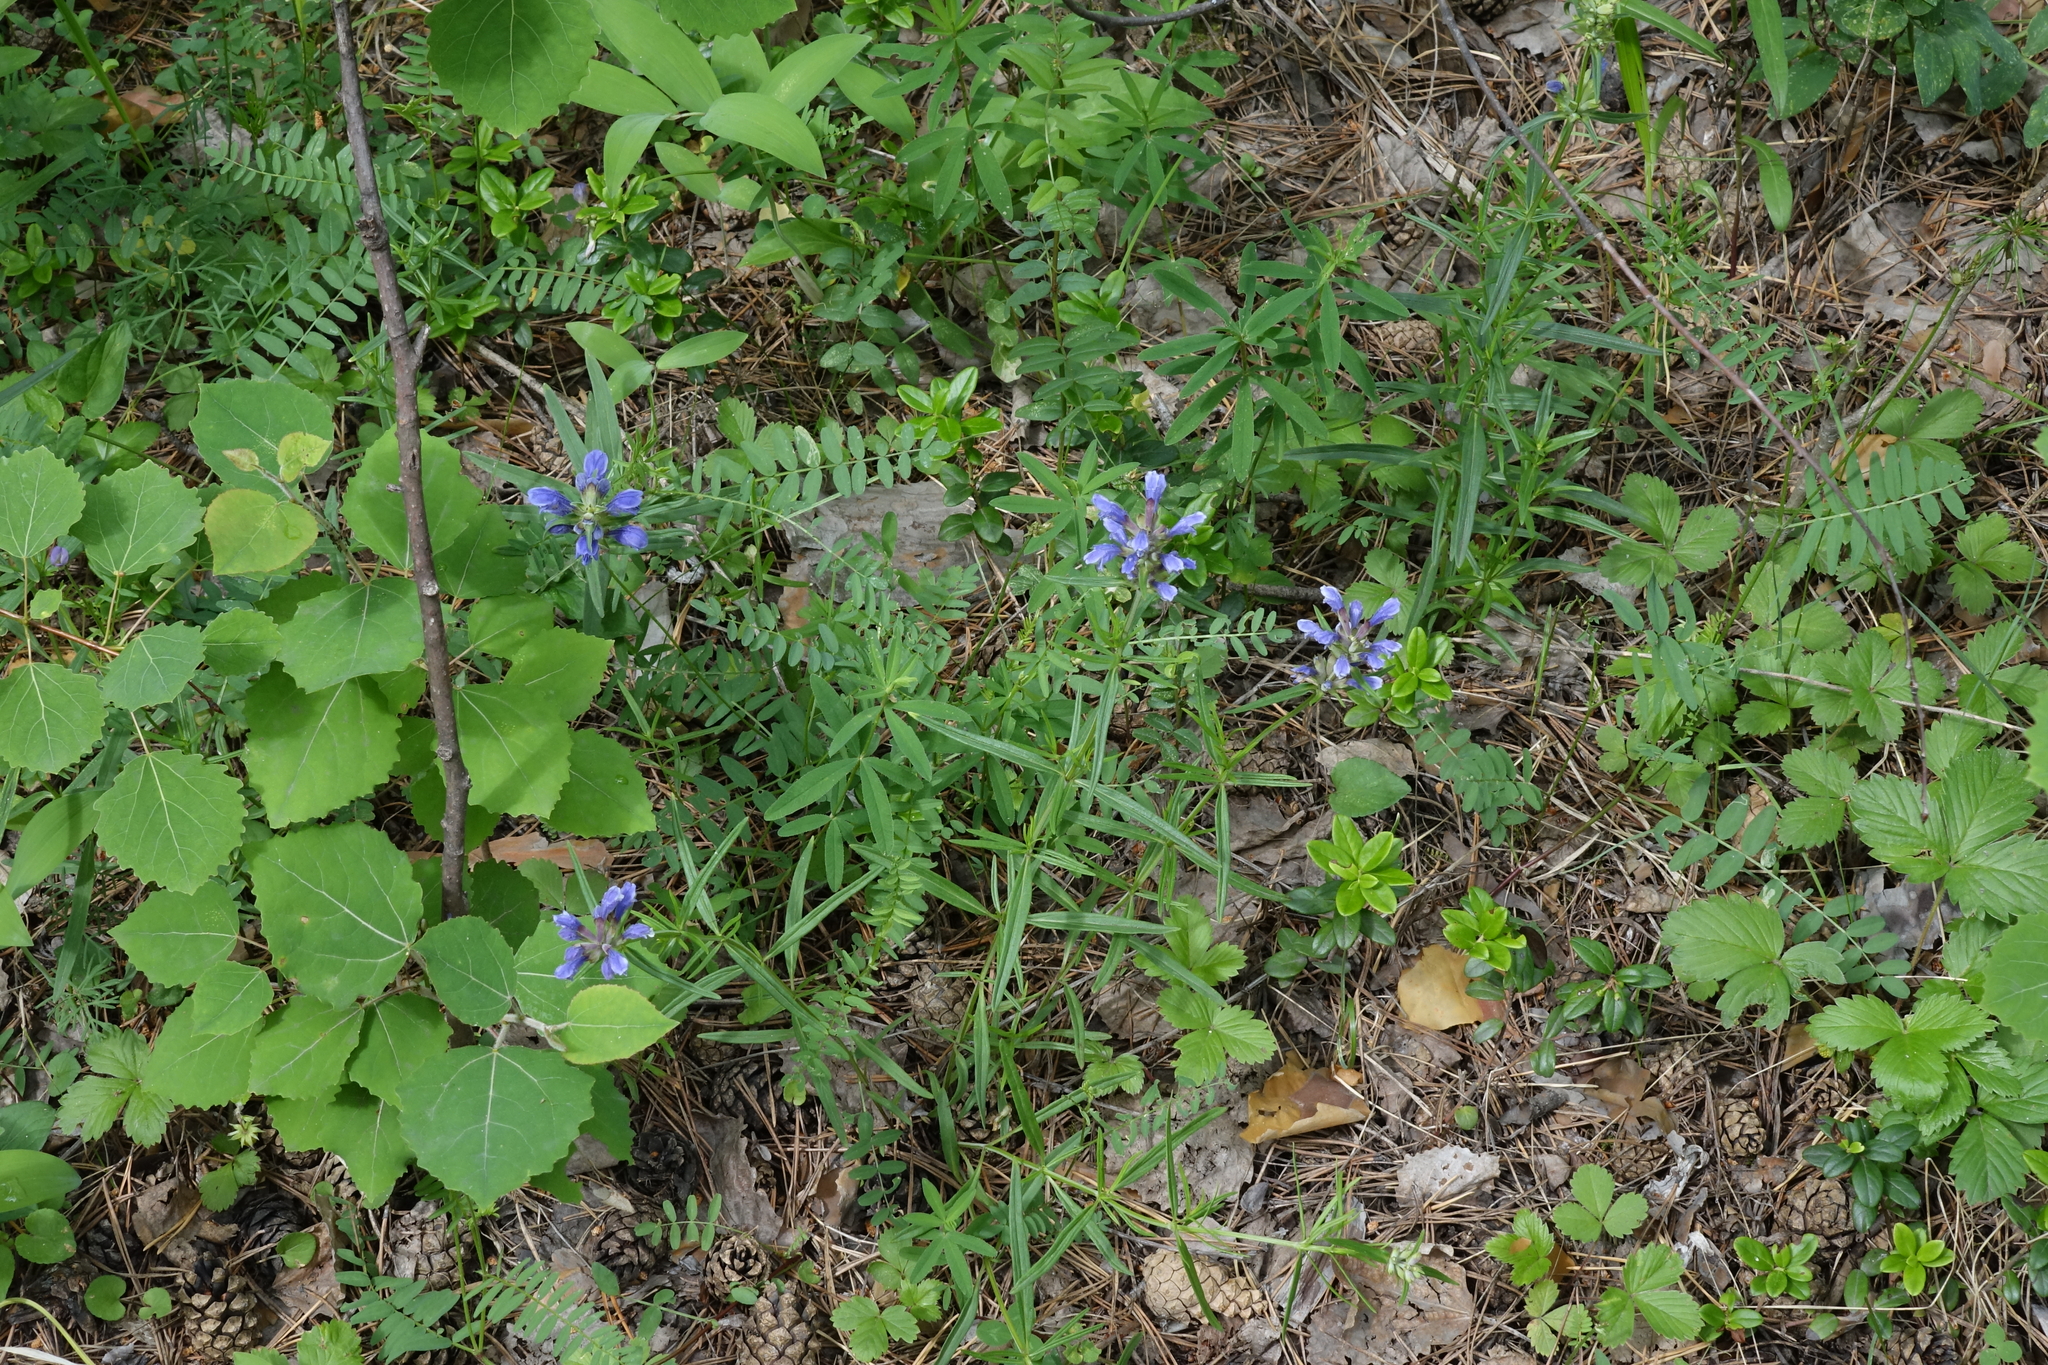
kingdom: Plantae
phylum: Tracheophyta
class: Magnoliopsida
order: Lamiales
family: Lamiaceae
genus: Dracocephalum
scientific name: Dracocephalum ruyschiana
